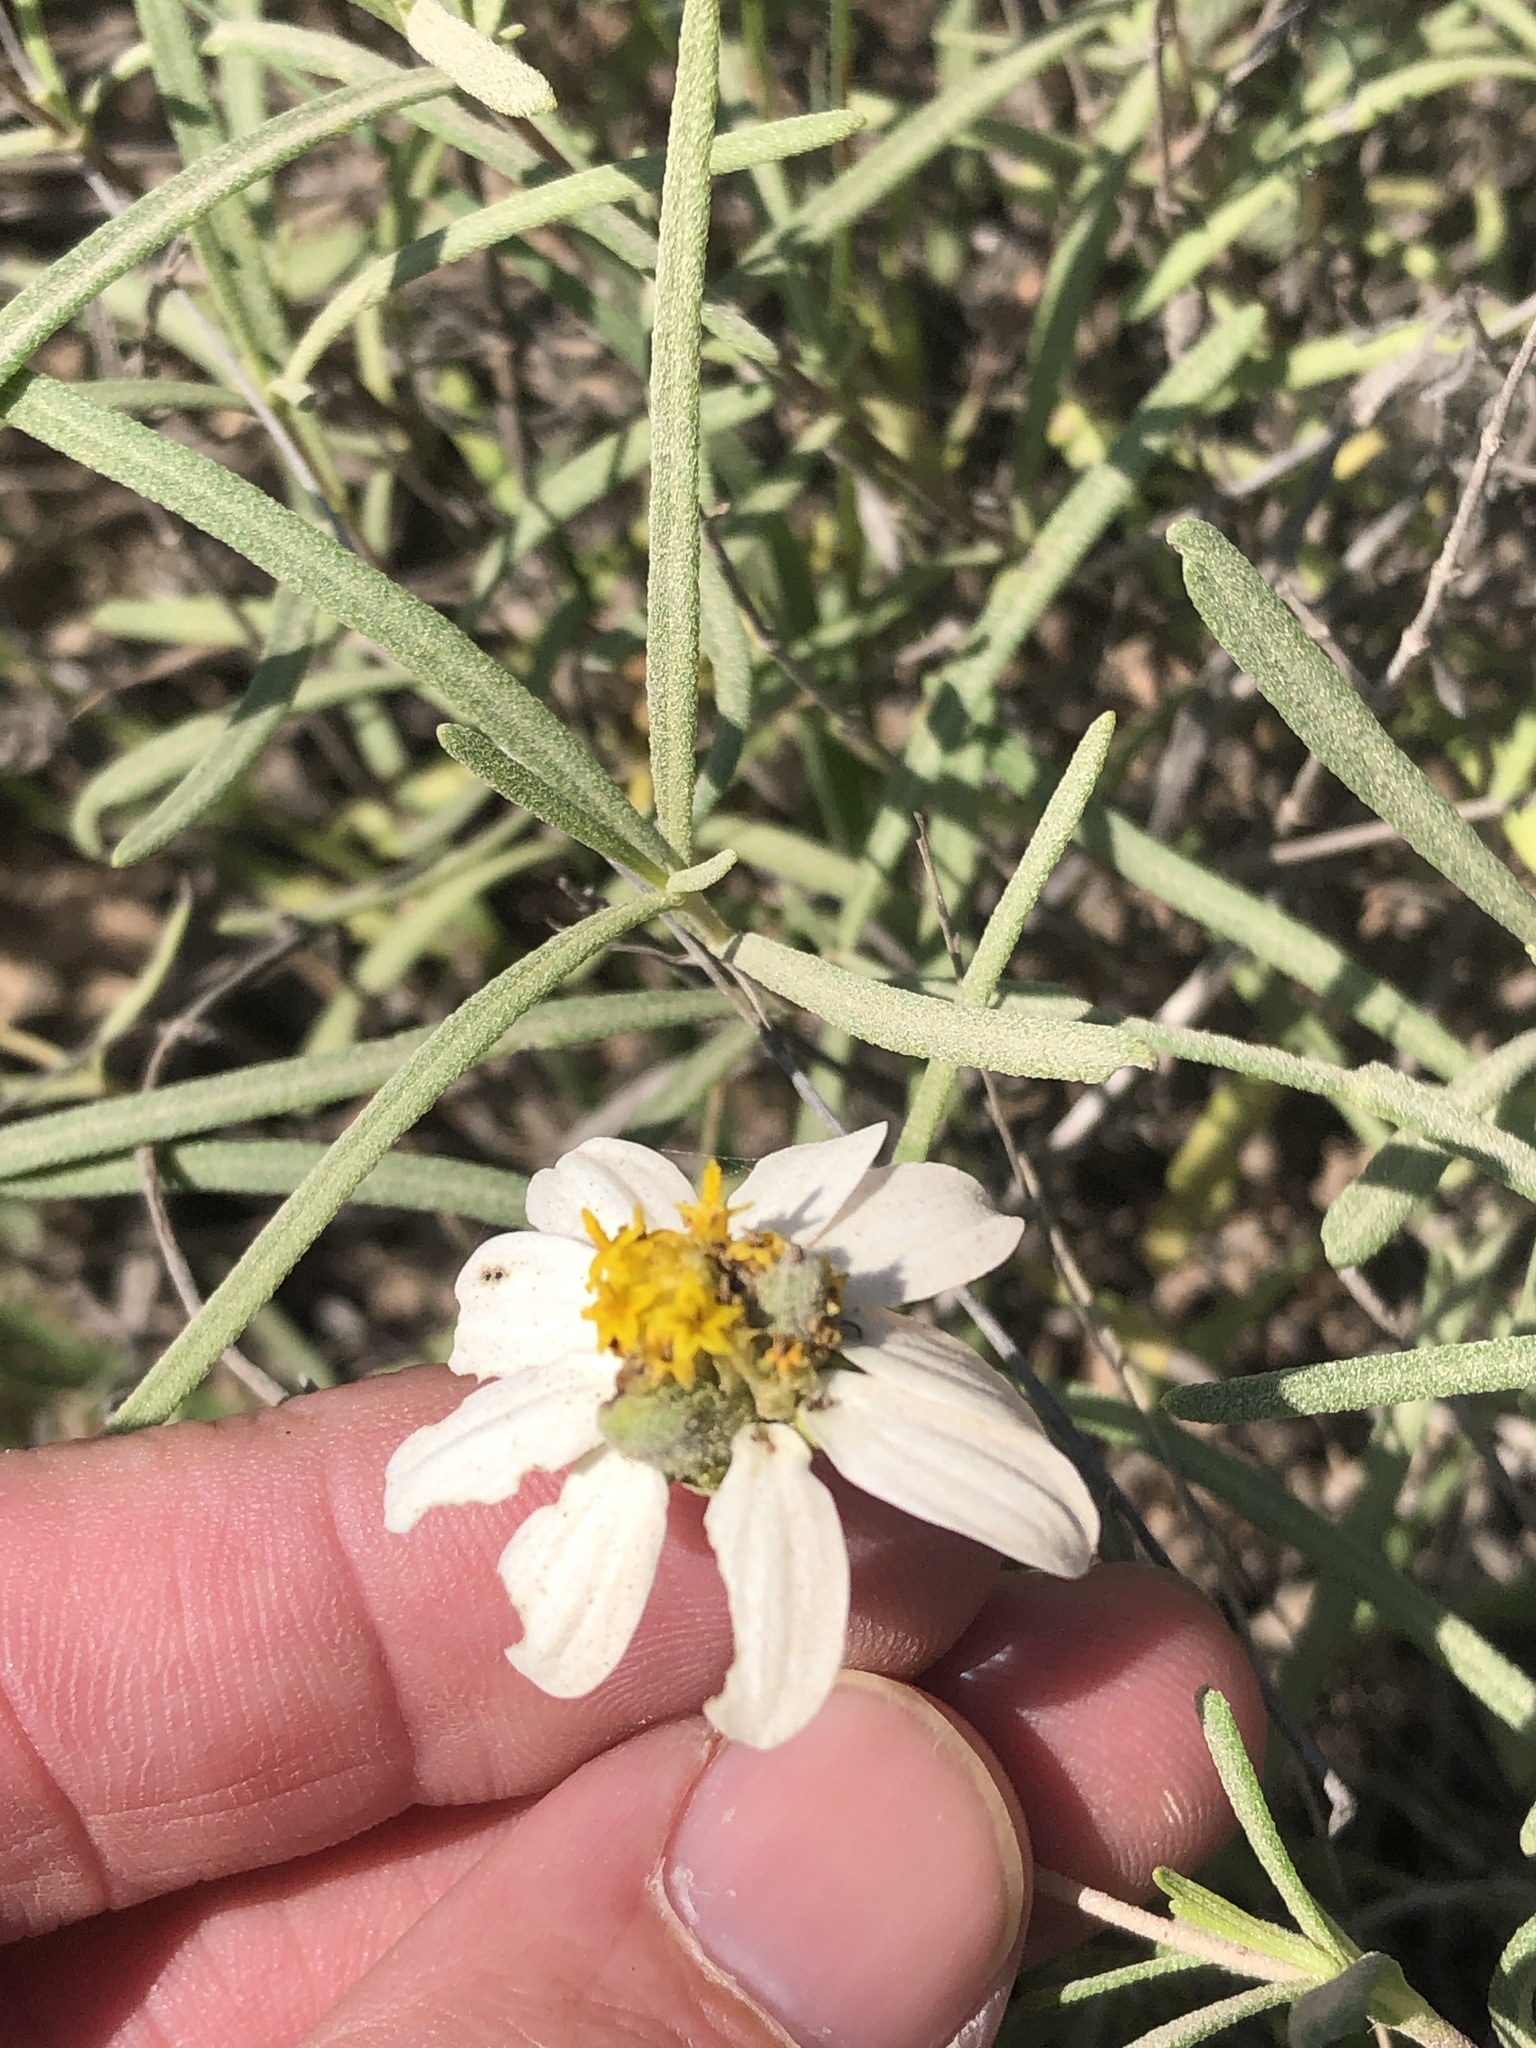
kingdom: Plantae
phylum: Tracheophyta
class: Magnoliopsida
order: Asterales
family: Asteraceae
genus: Melampodium
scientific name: Melampodium leucanthum
